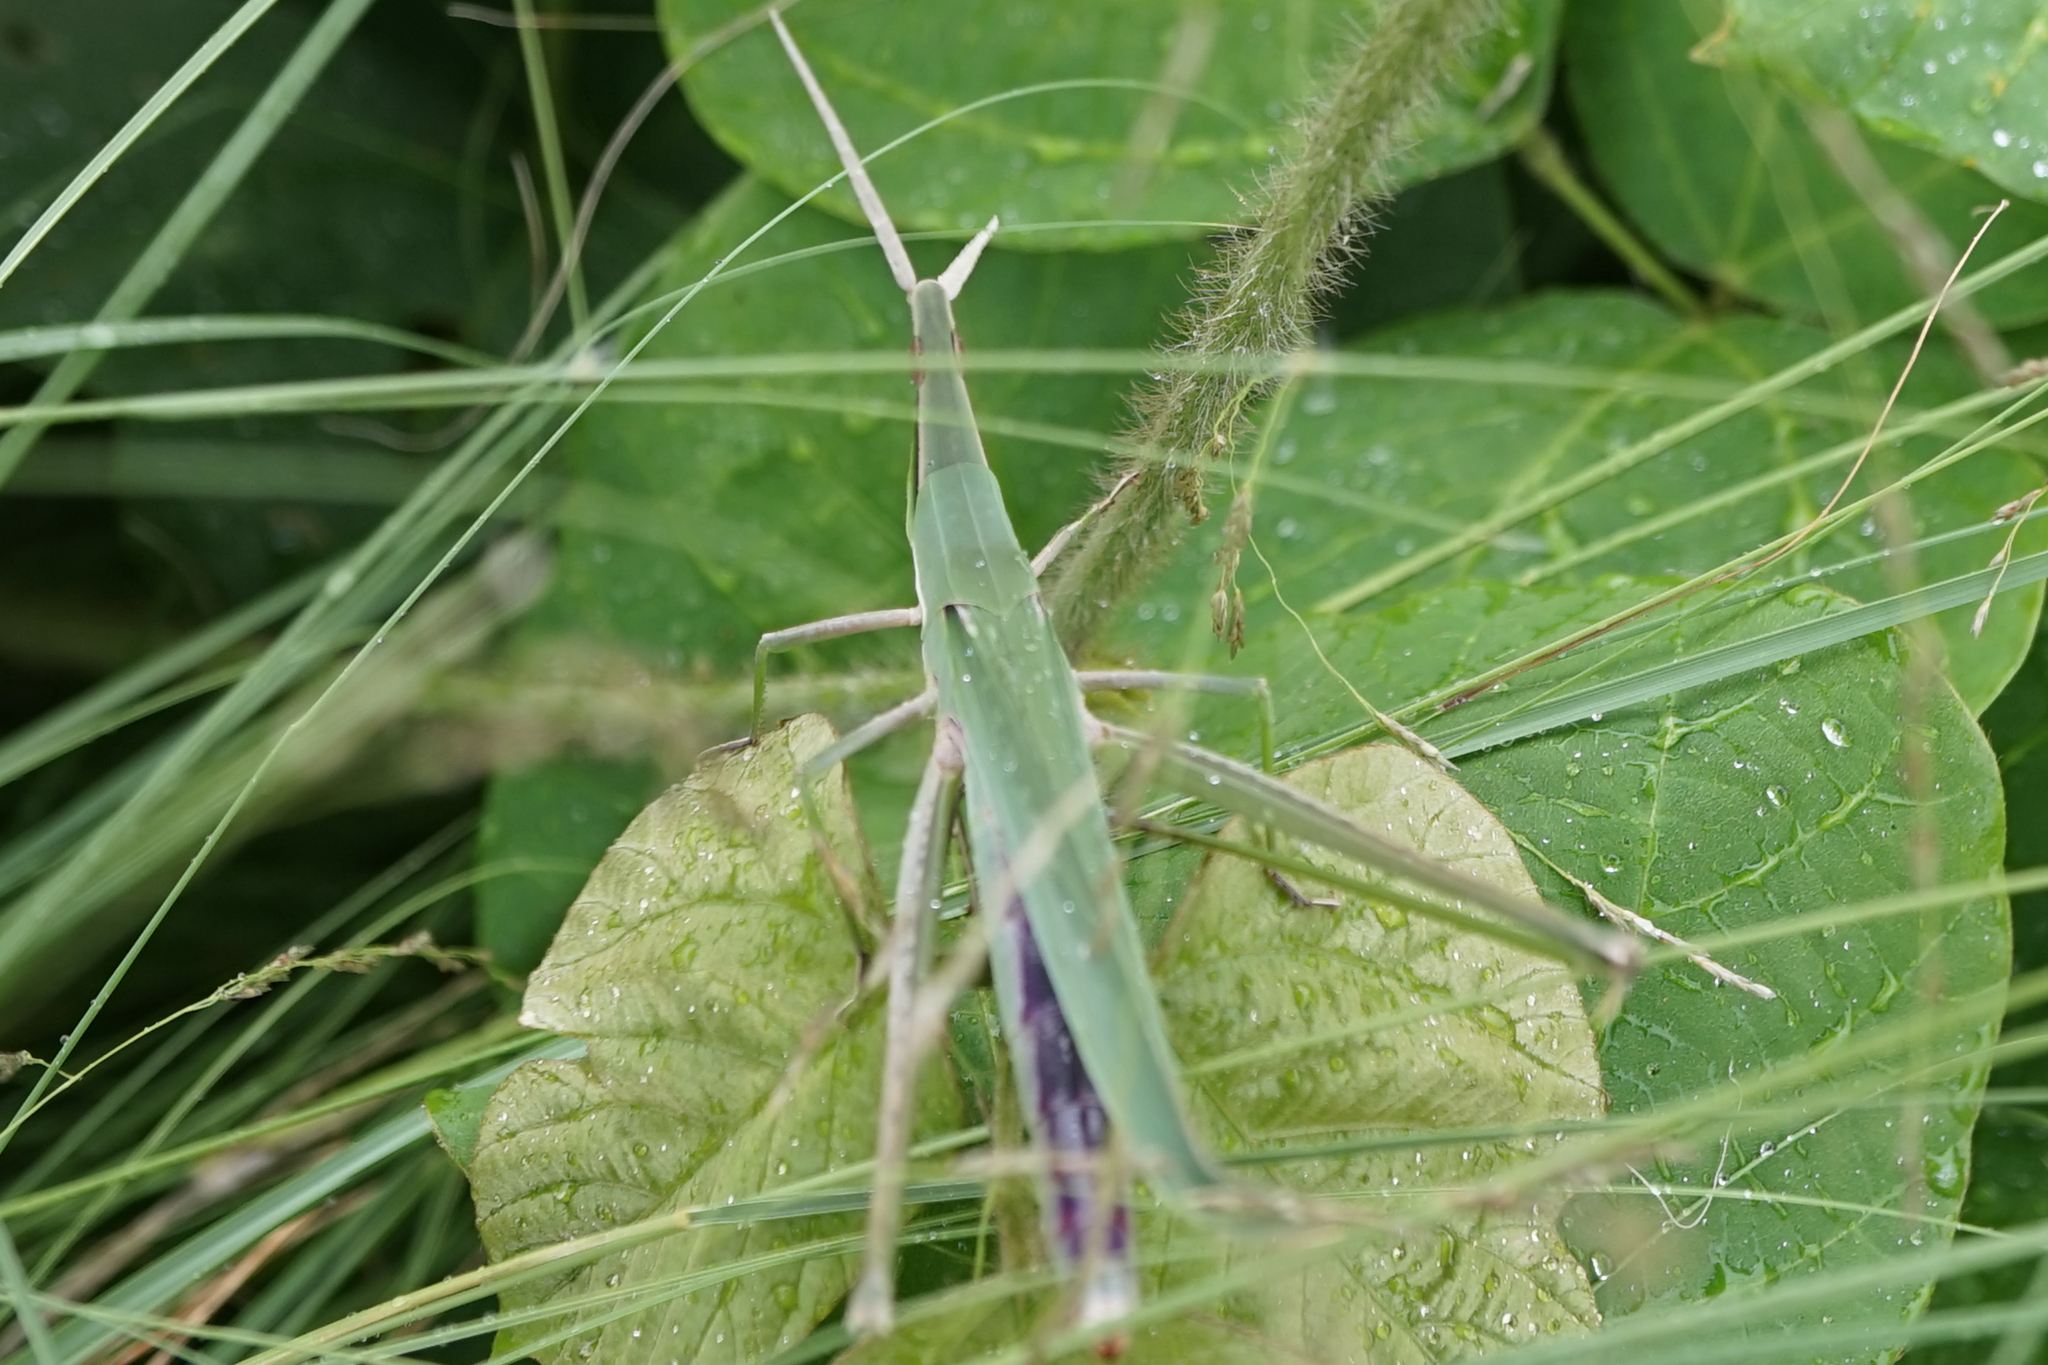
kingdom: Animalia
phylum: Arthropoda
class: Insecta
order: Orthoptera
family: Acrididae
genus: Acrida
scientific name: Acrida cinerea
